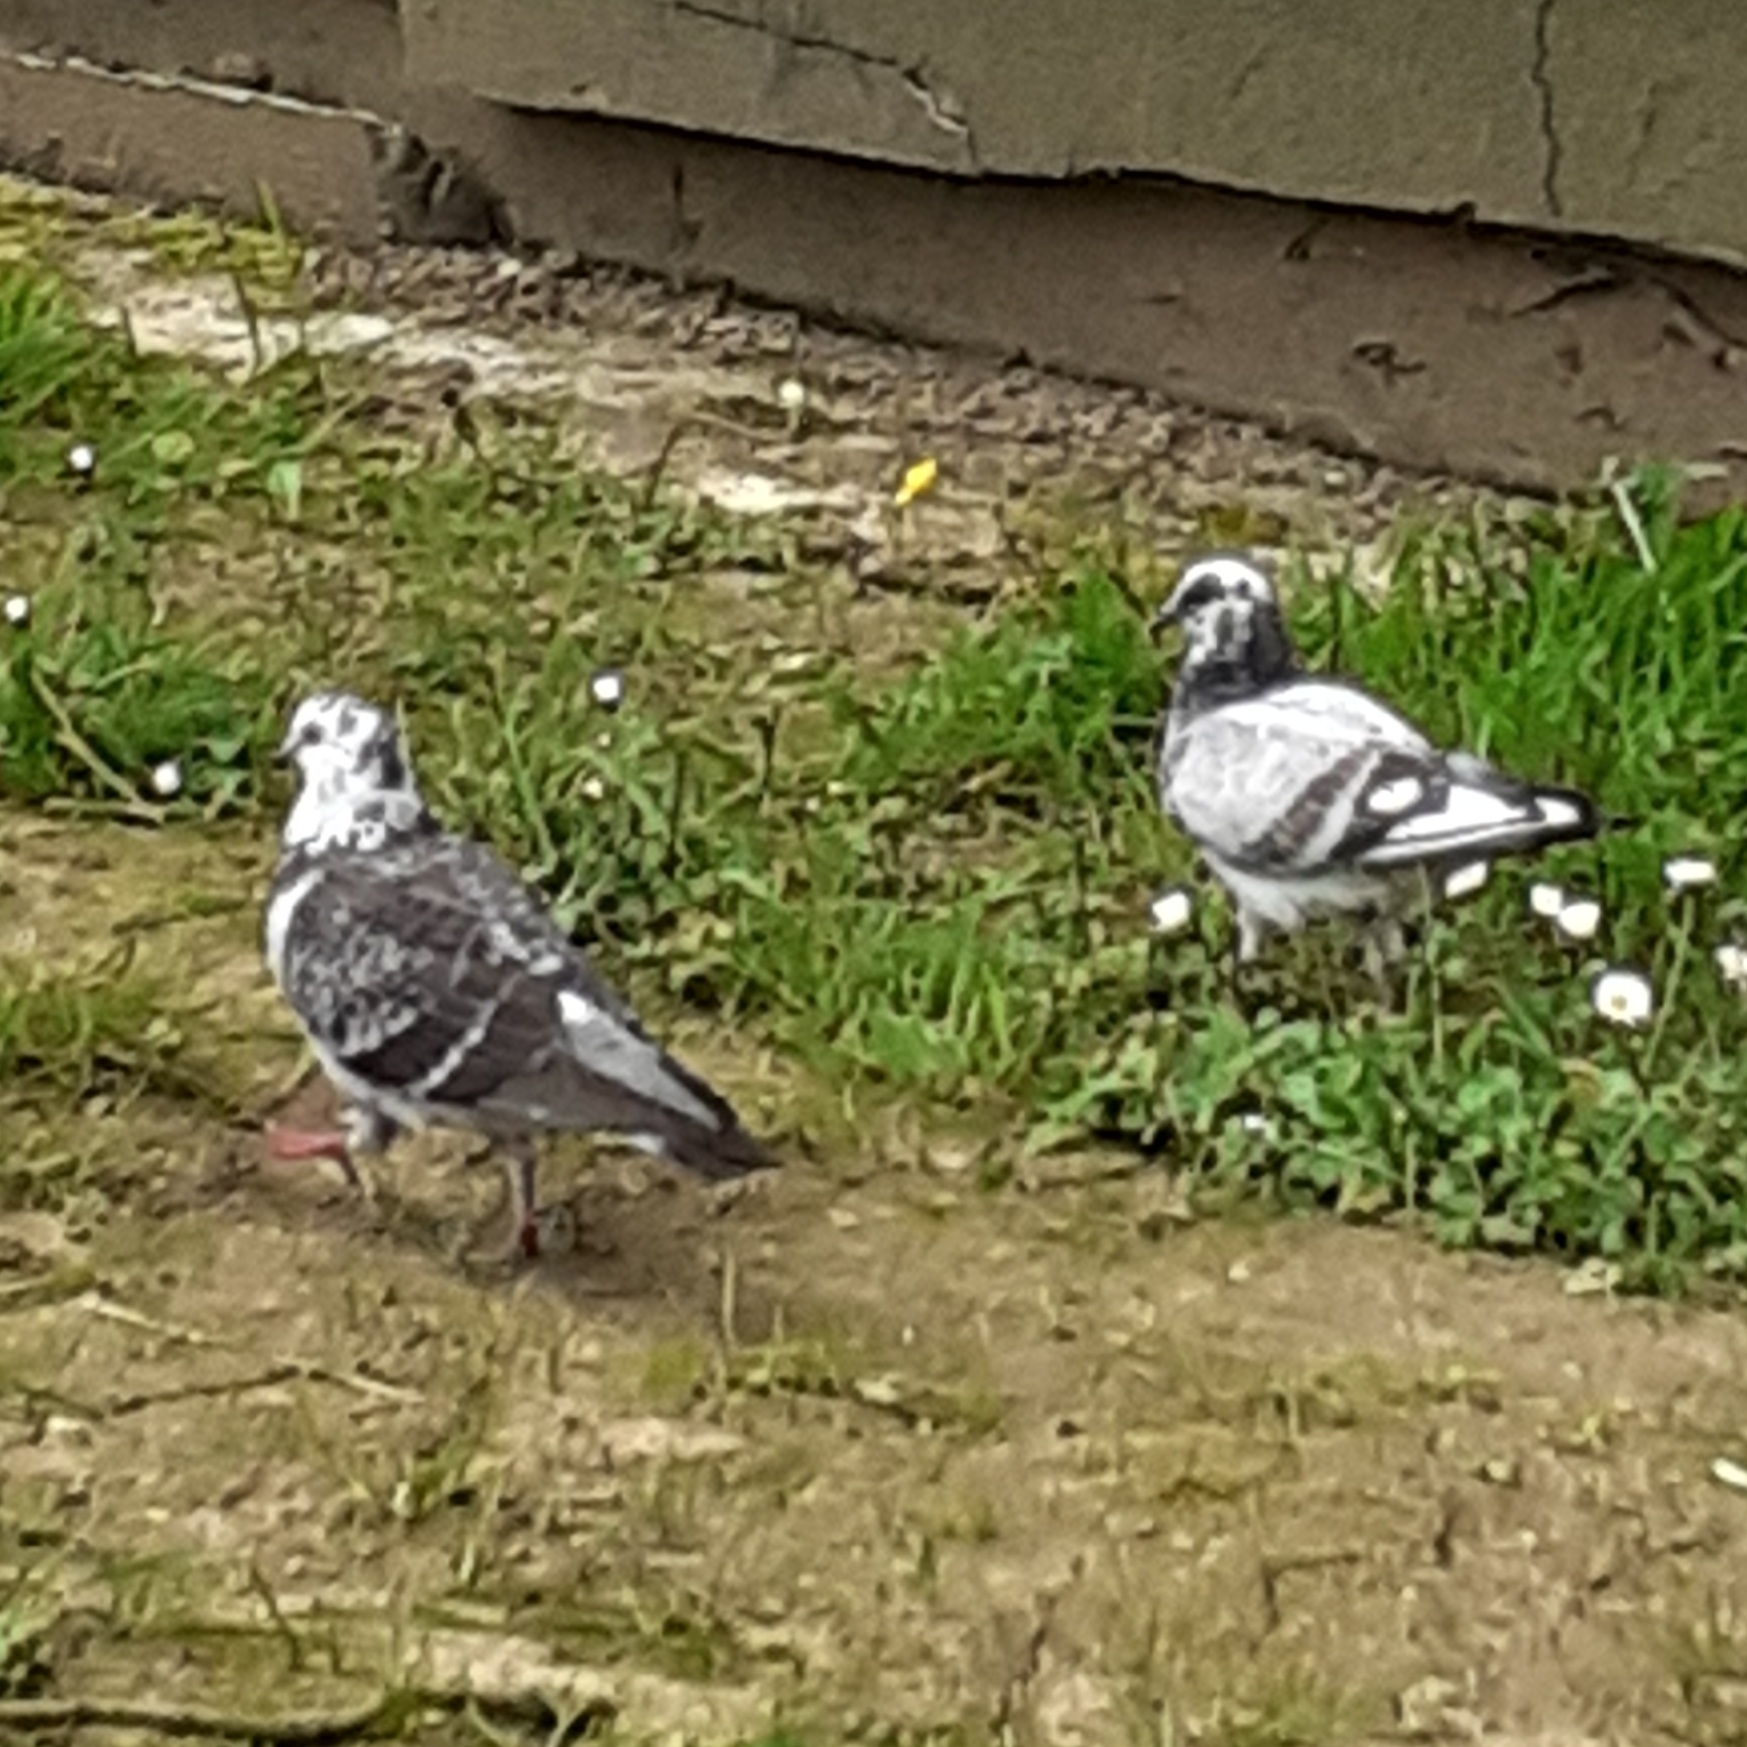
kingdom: Animalia
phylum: Chordata
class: Aves
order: Columbiformes
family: Columbidae
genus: Columba
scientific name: Columba livia
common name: Rock pigeon
